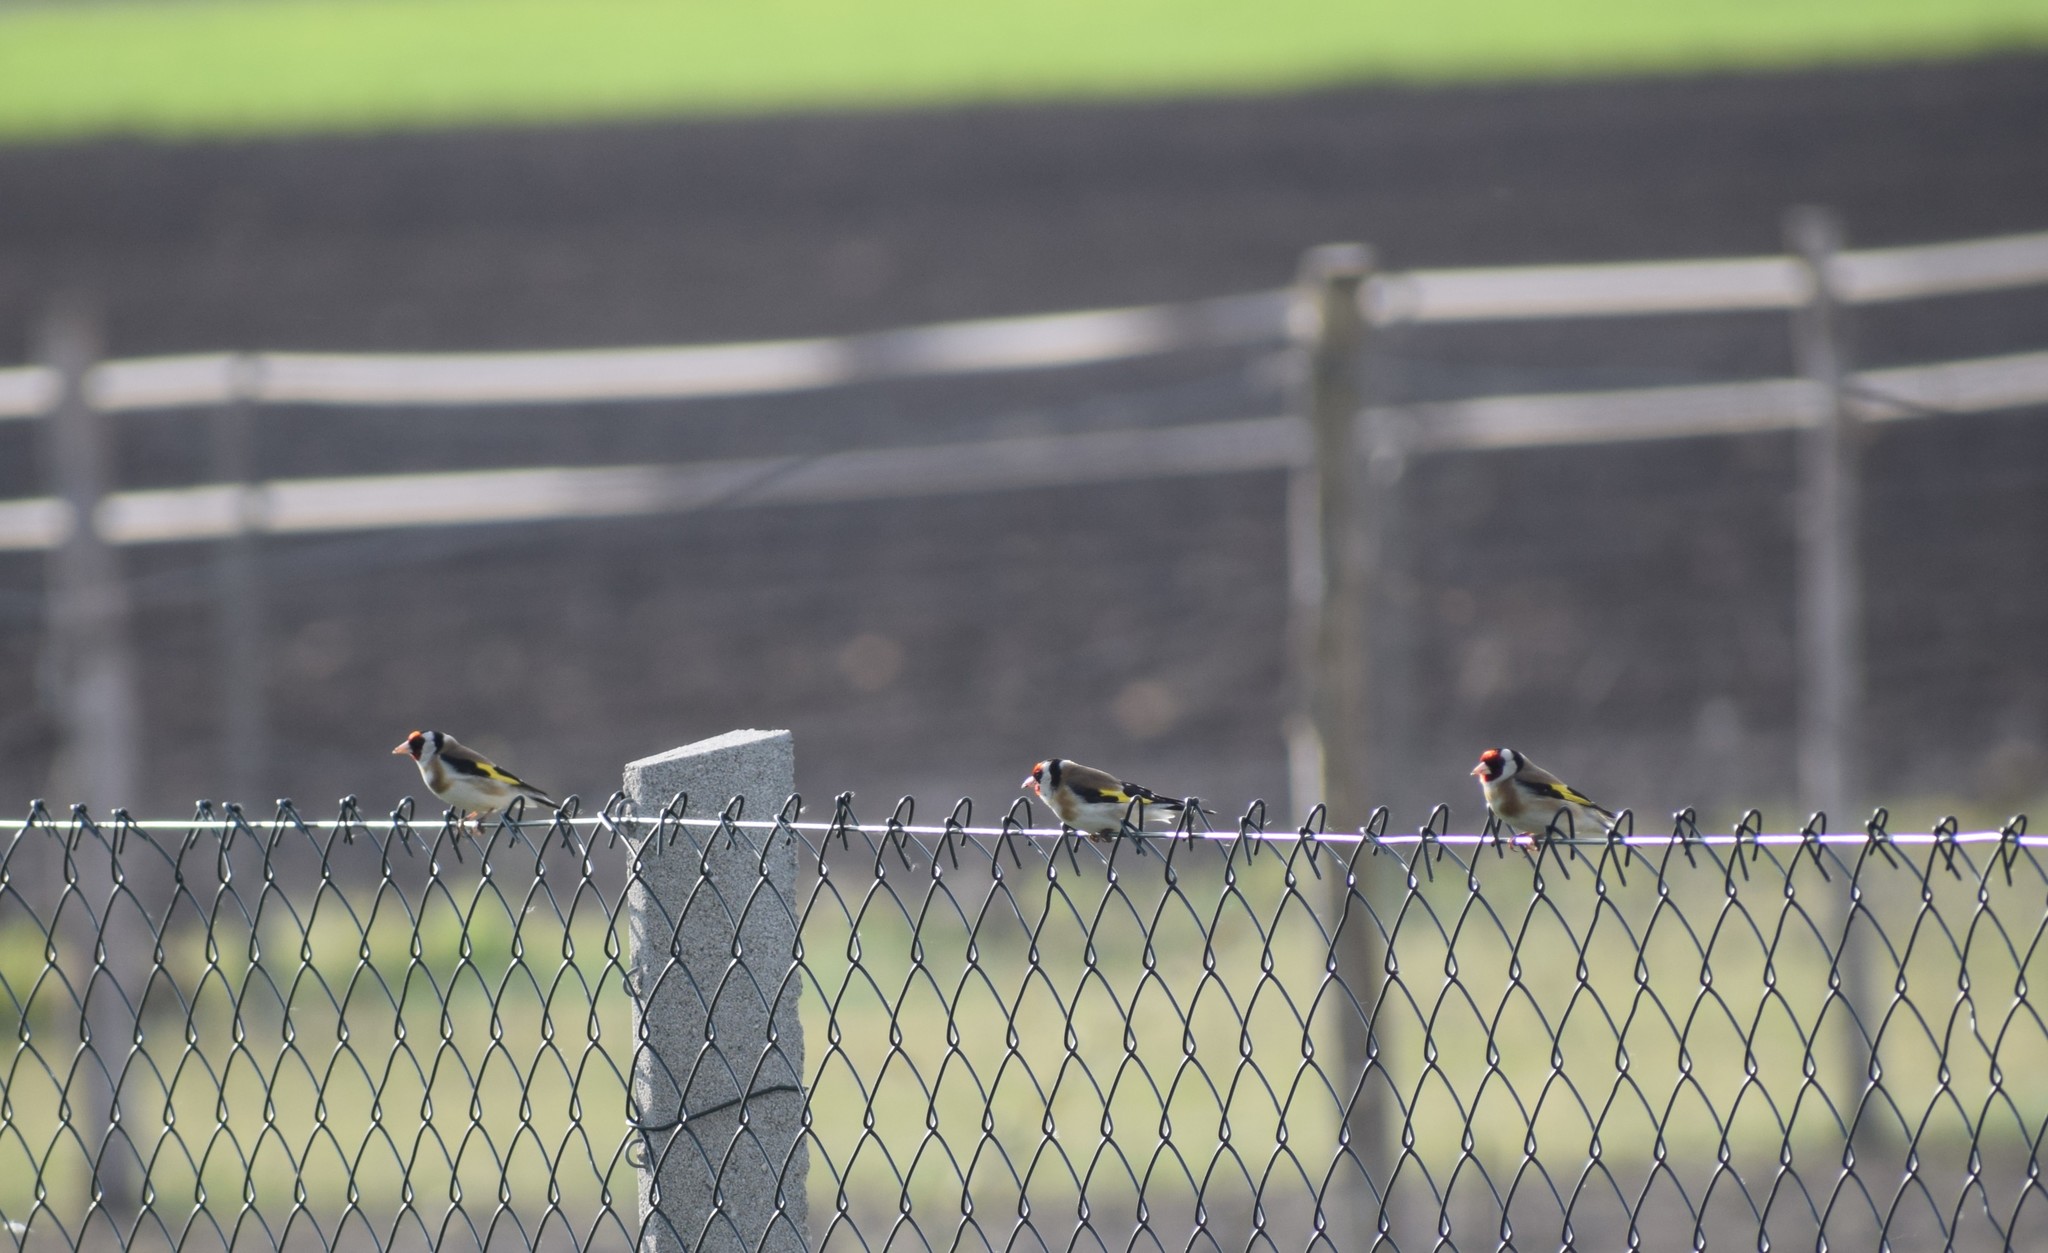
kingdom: Animalia
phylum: Chordata
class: Aves
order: Passeriformes
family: Fringillidae
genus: Carduelis
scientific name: Carduelis carduelis
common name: European goldfinch
